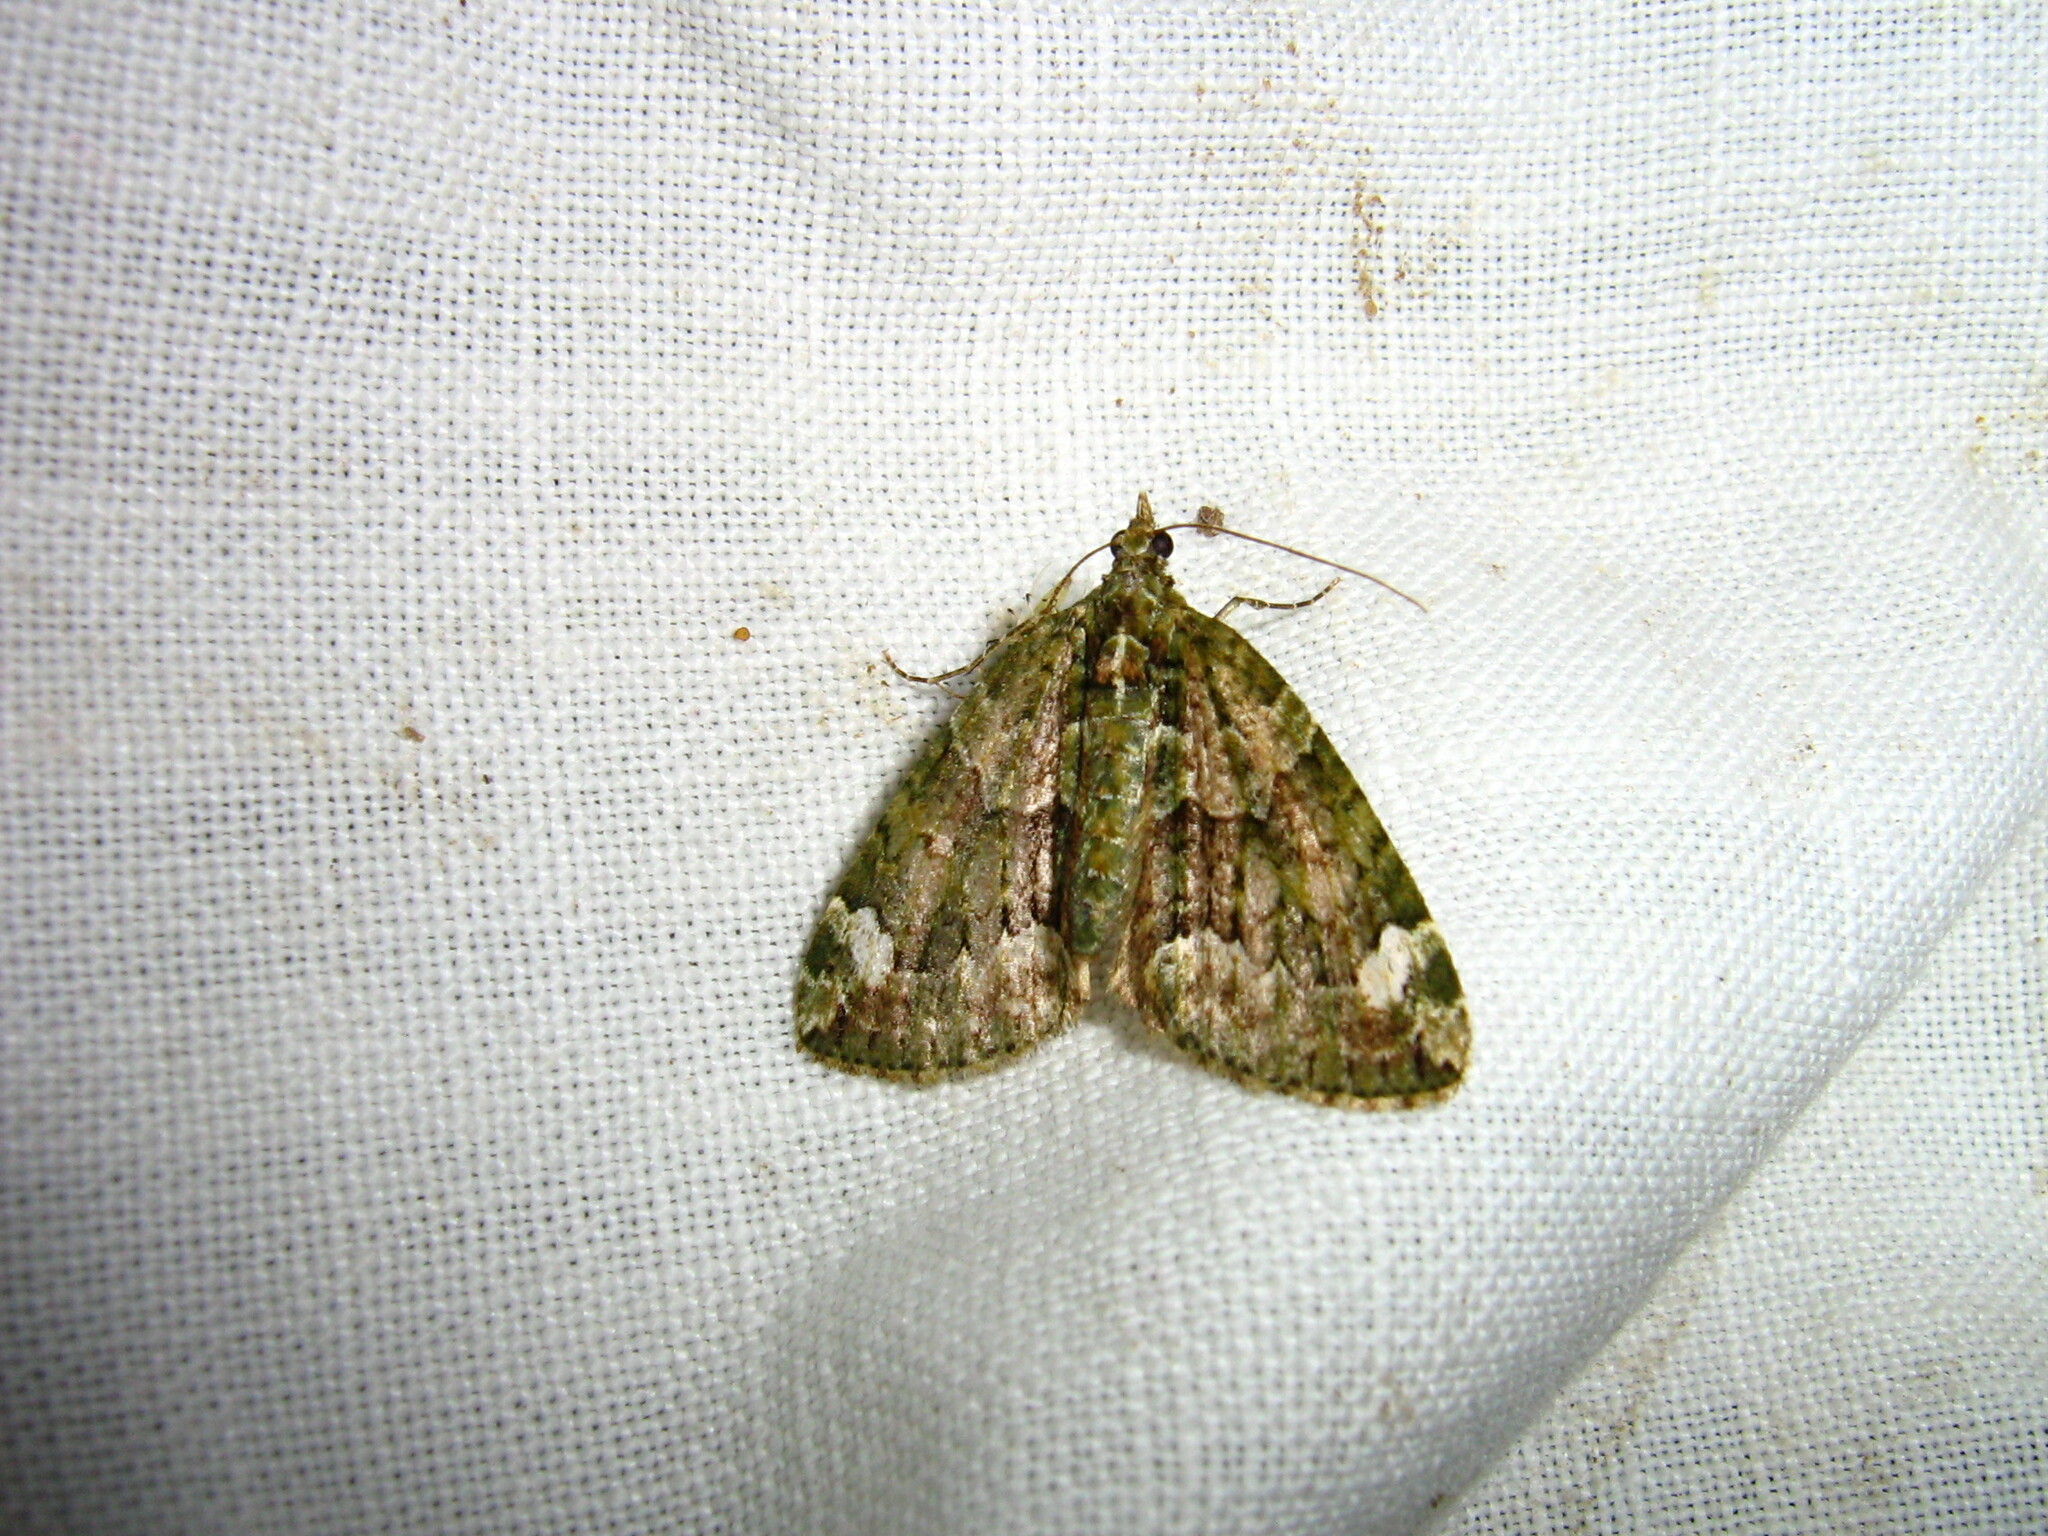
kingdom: Animalia
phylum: Arthropoda
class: Insecta
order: Lepidoptera
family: Geometridae
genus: Chloroclysta
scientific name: Chloroclysta siterata
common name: Red-green carpet
